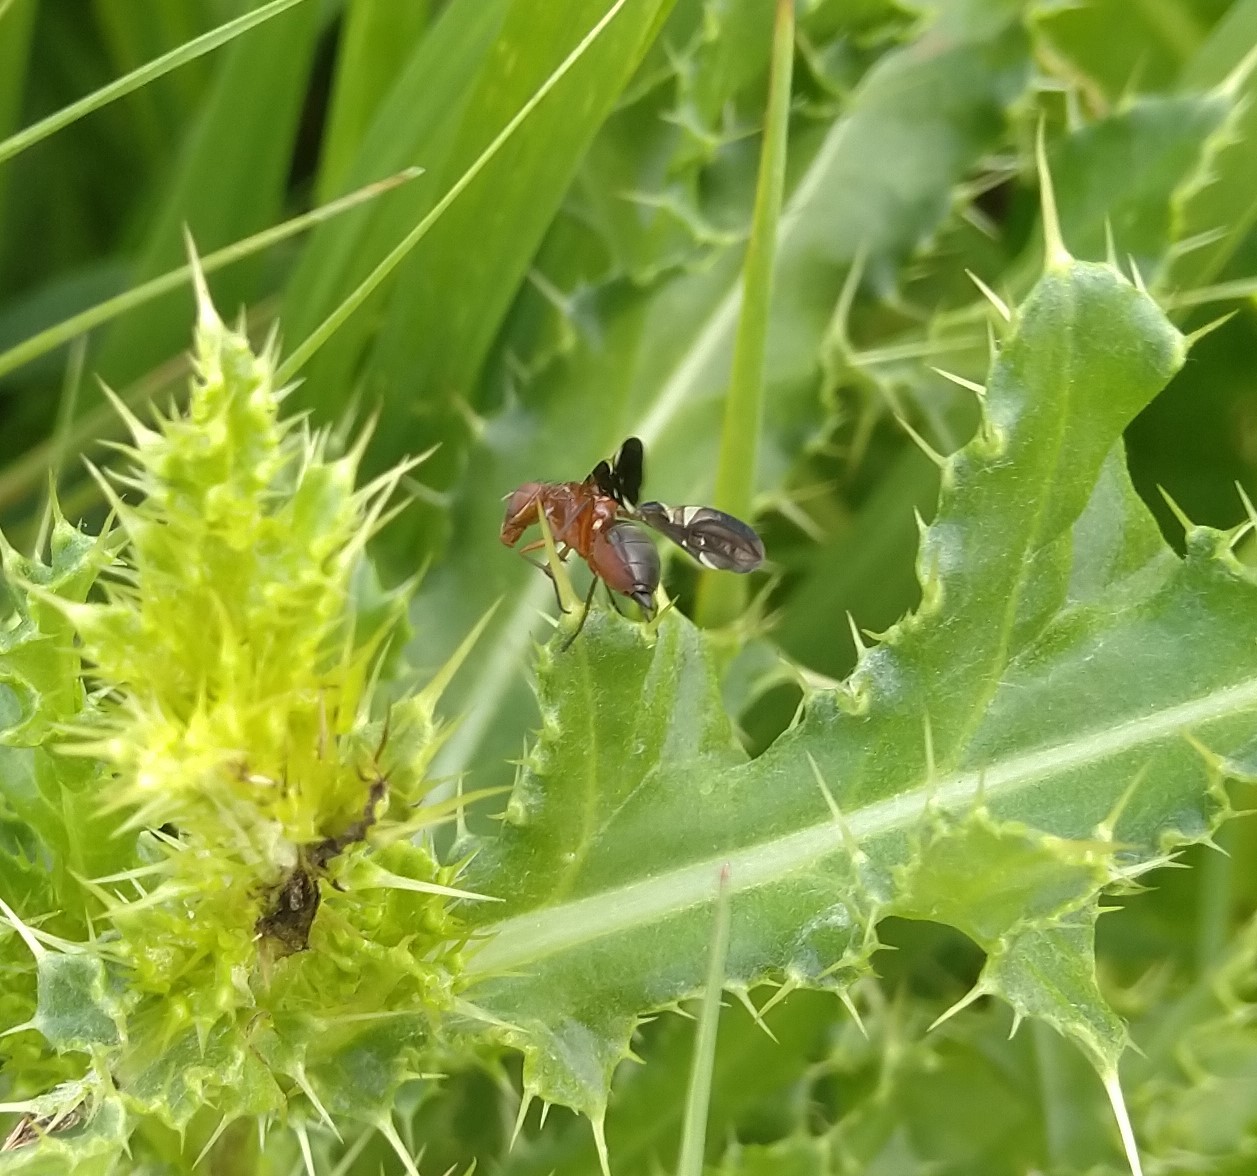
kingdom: Animalia
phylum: Arthropoda
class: Insecta
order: Diptera
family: Ulidiidae
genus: Delphinia
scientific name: Delphinia picta
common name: Common picture-winged fly
